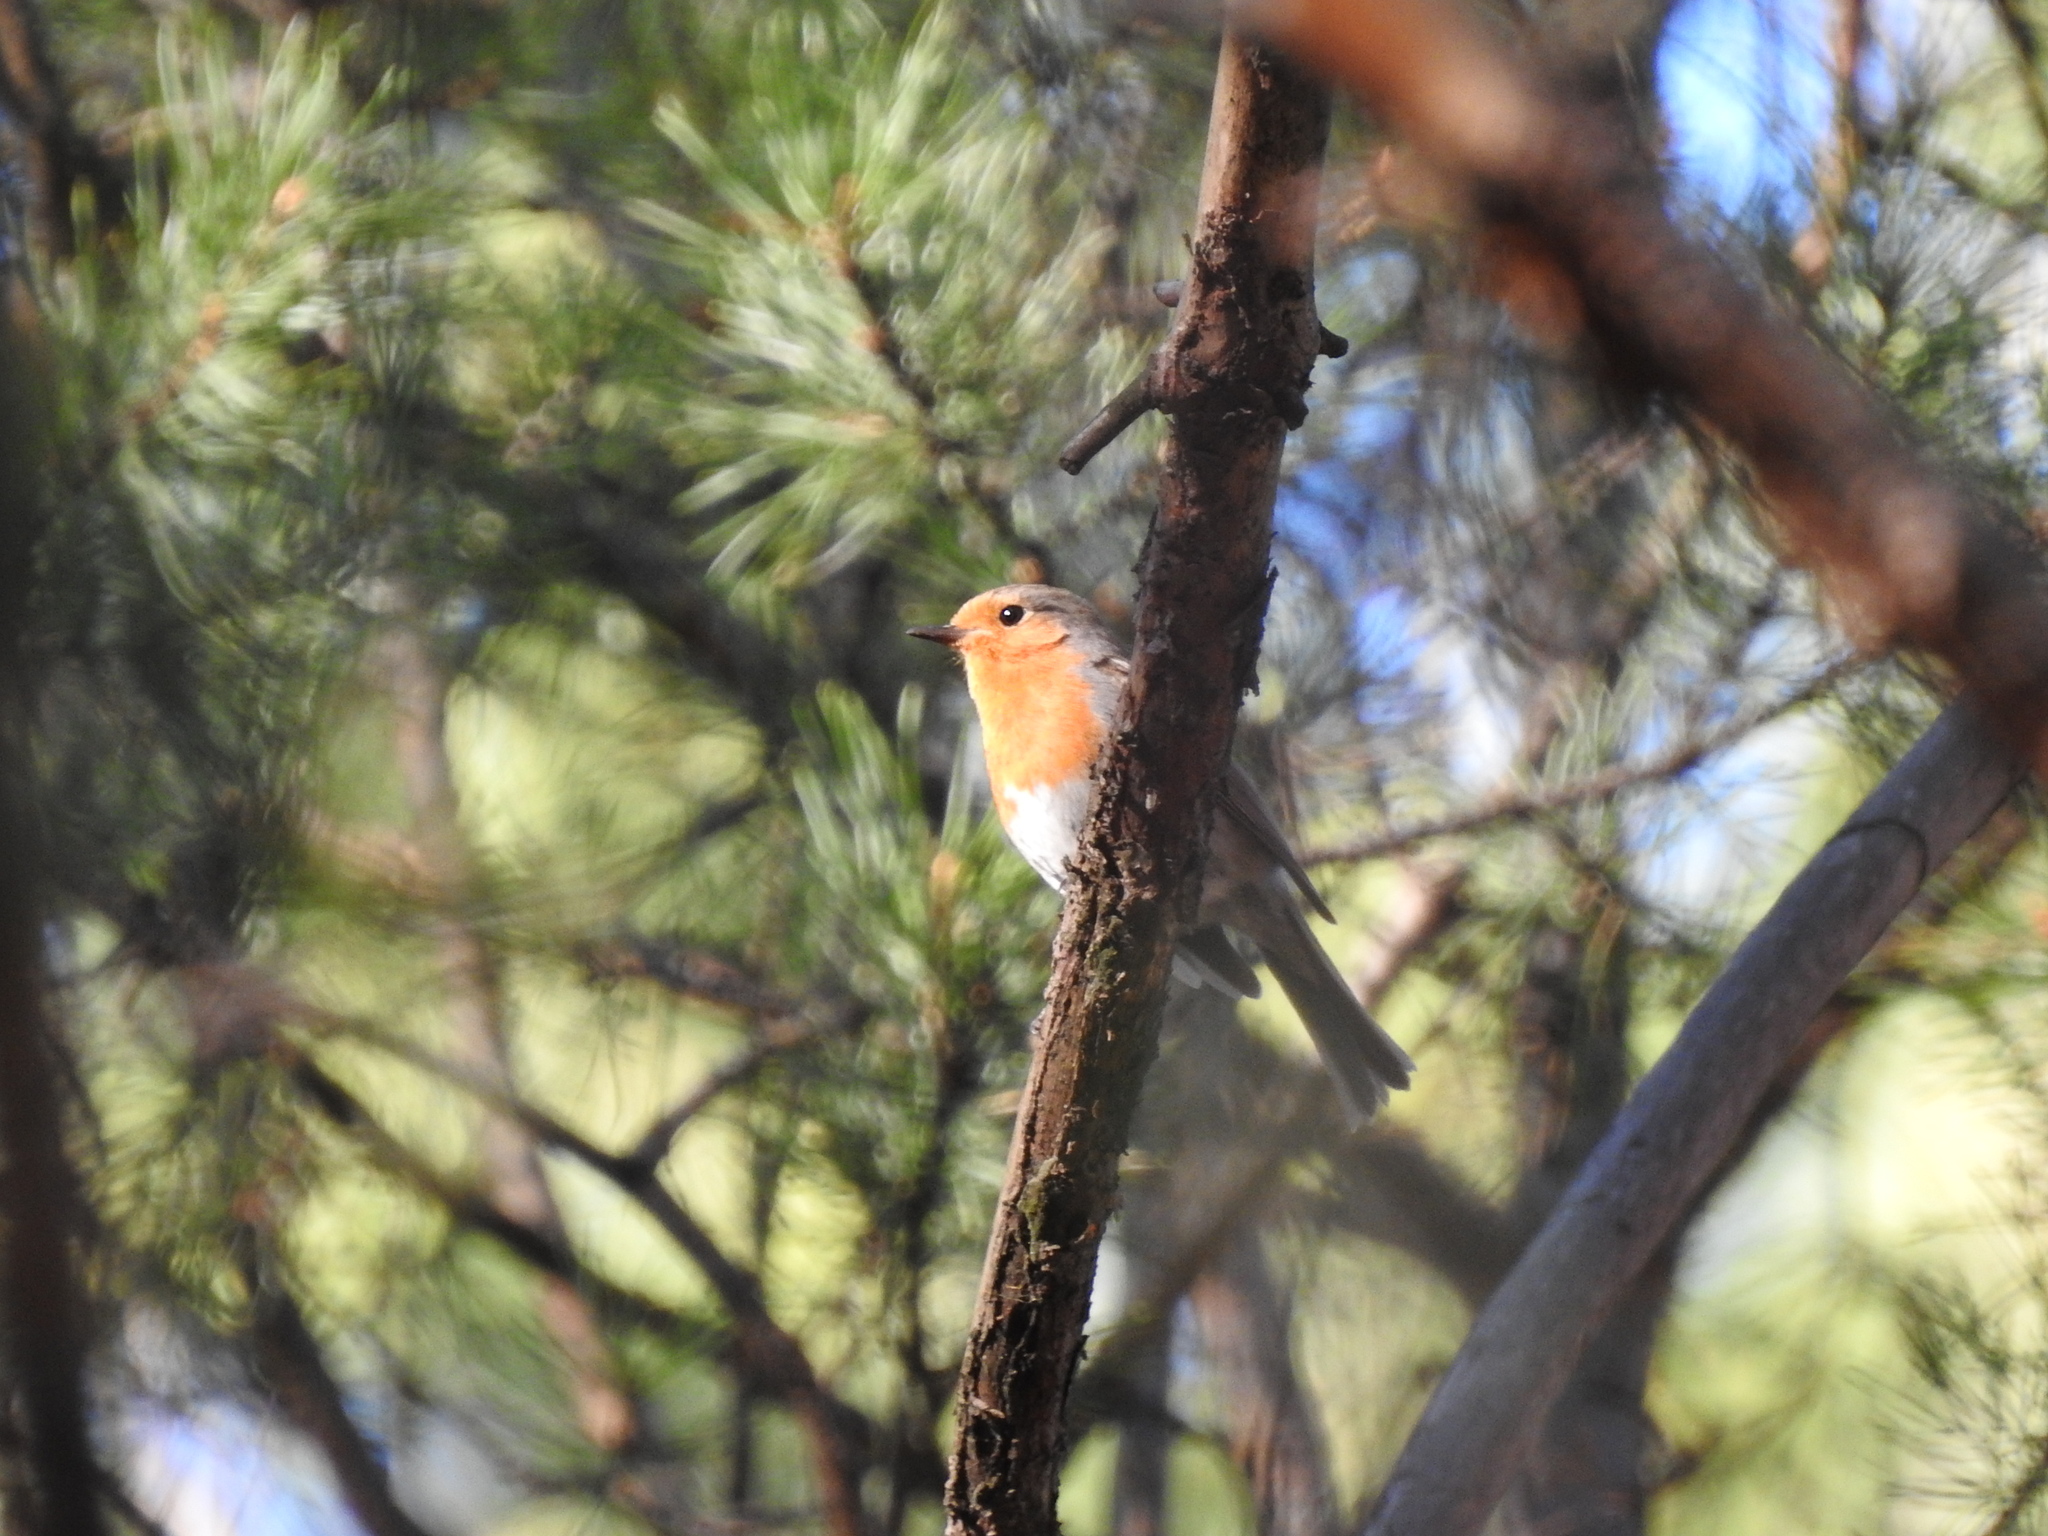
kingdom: Animalia
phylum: Chordata
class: Aves
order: Passeriformes
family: Muscicapidae
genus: Erithacus
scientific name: Erithacus rubecula
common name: European robin
